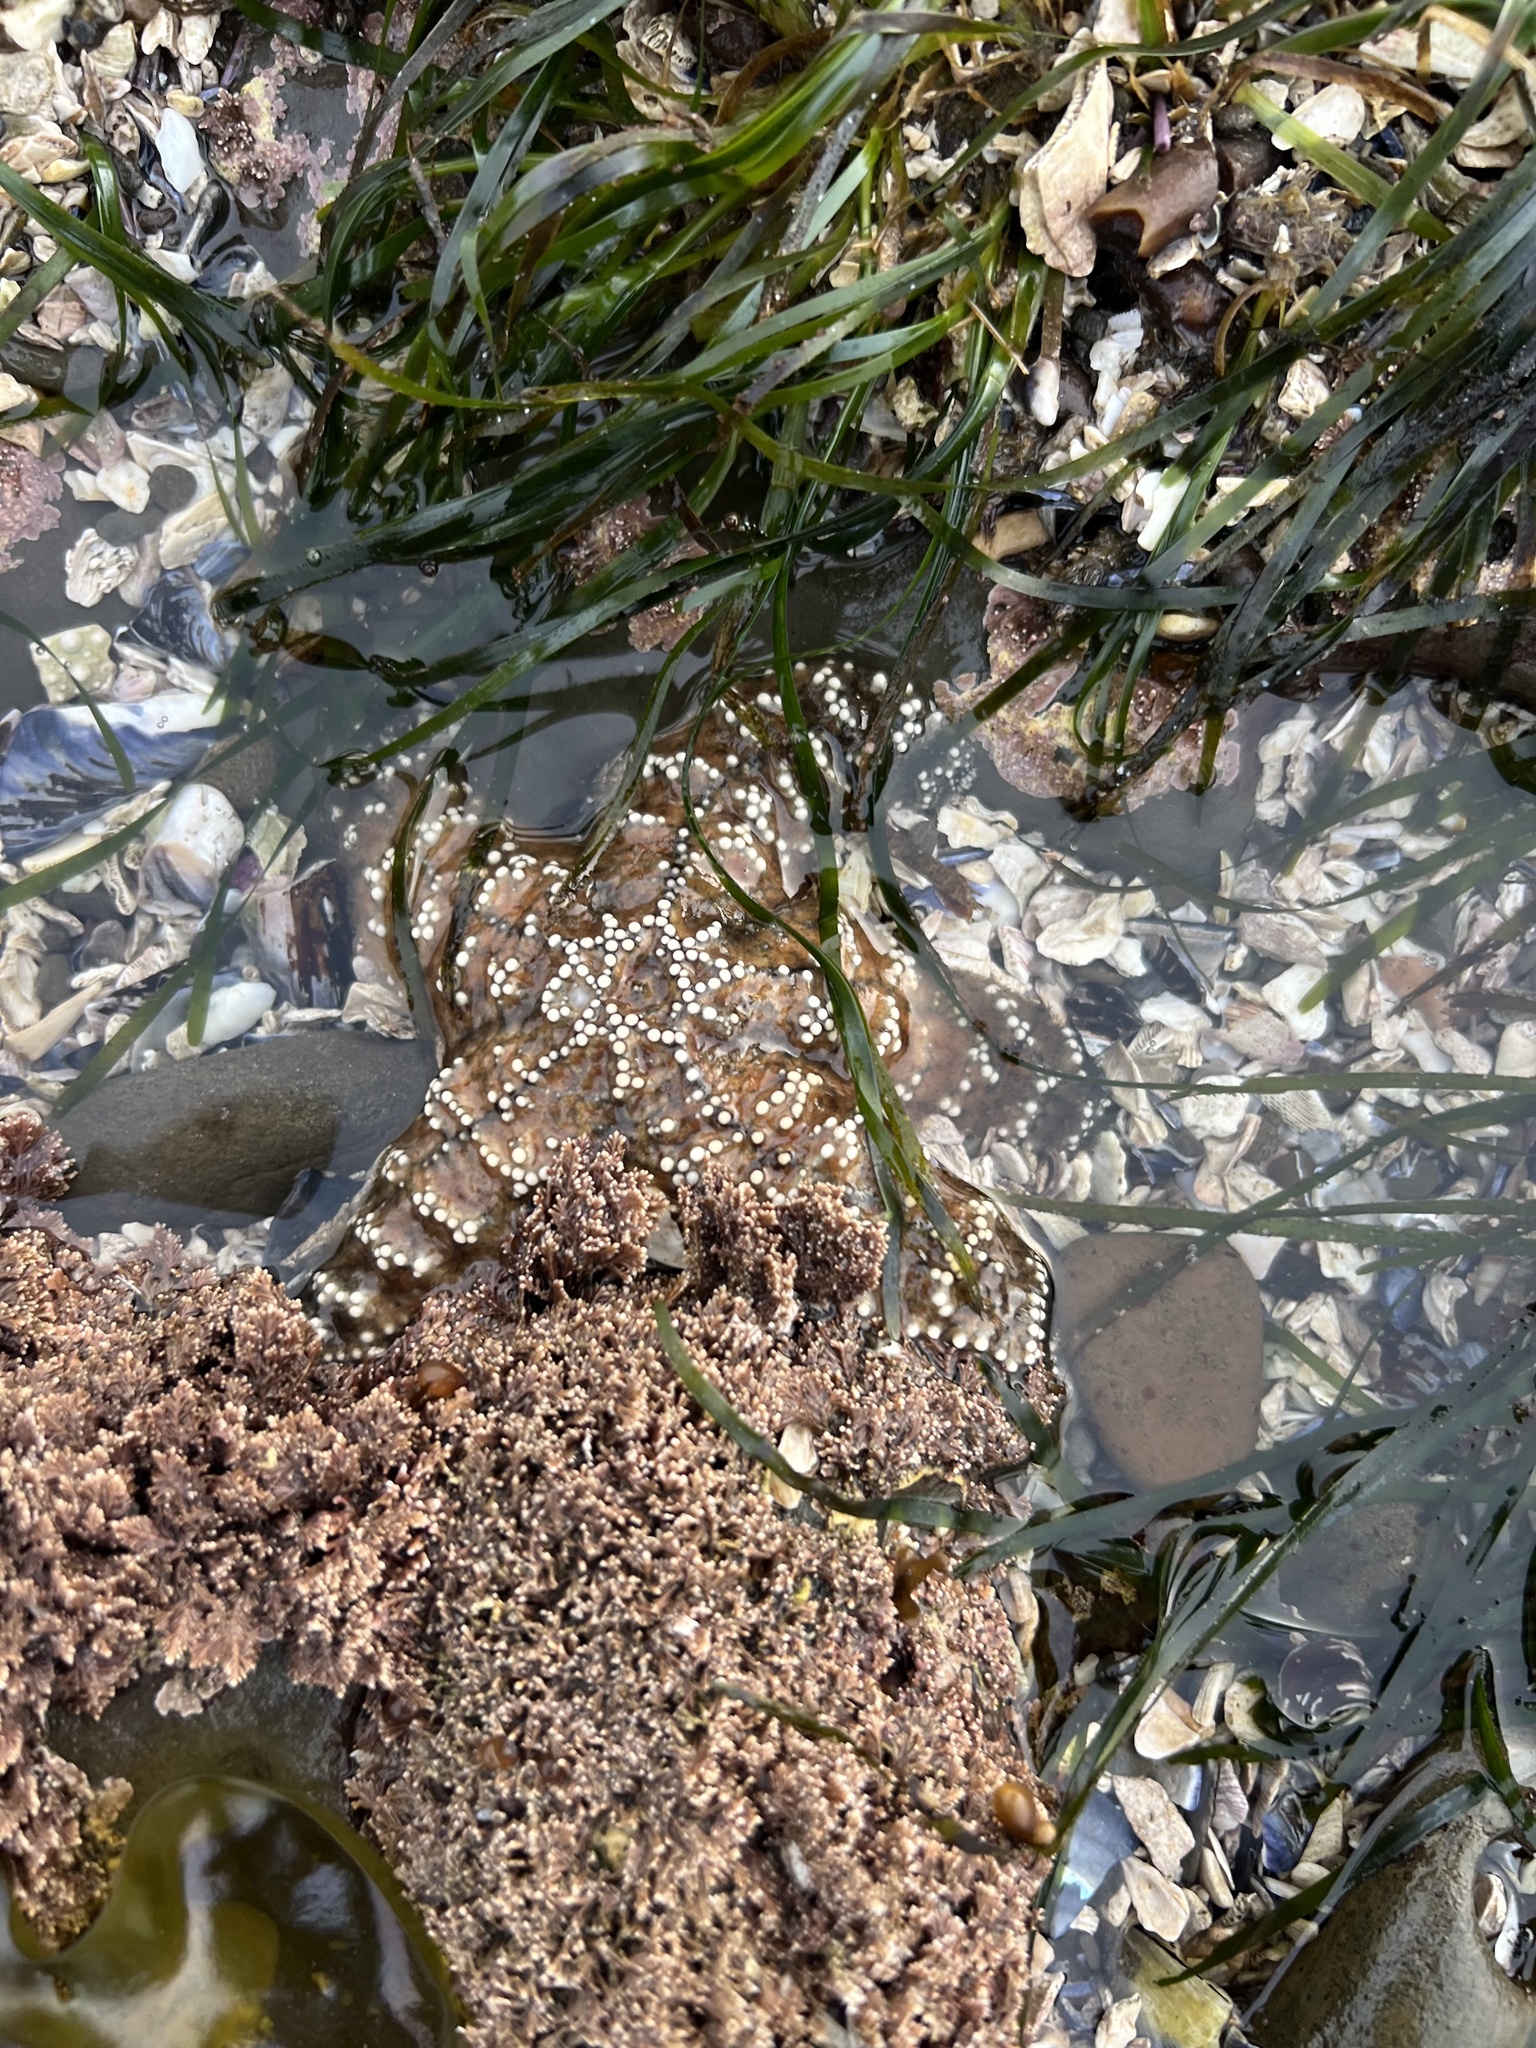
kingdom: Animalia
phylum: Echinodermata
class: Asteroidea
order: Forcipulatida
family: Asteriidae
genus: Pisaster
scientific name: Pisaster ochraceus
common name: Ochre stars
